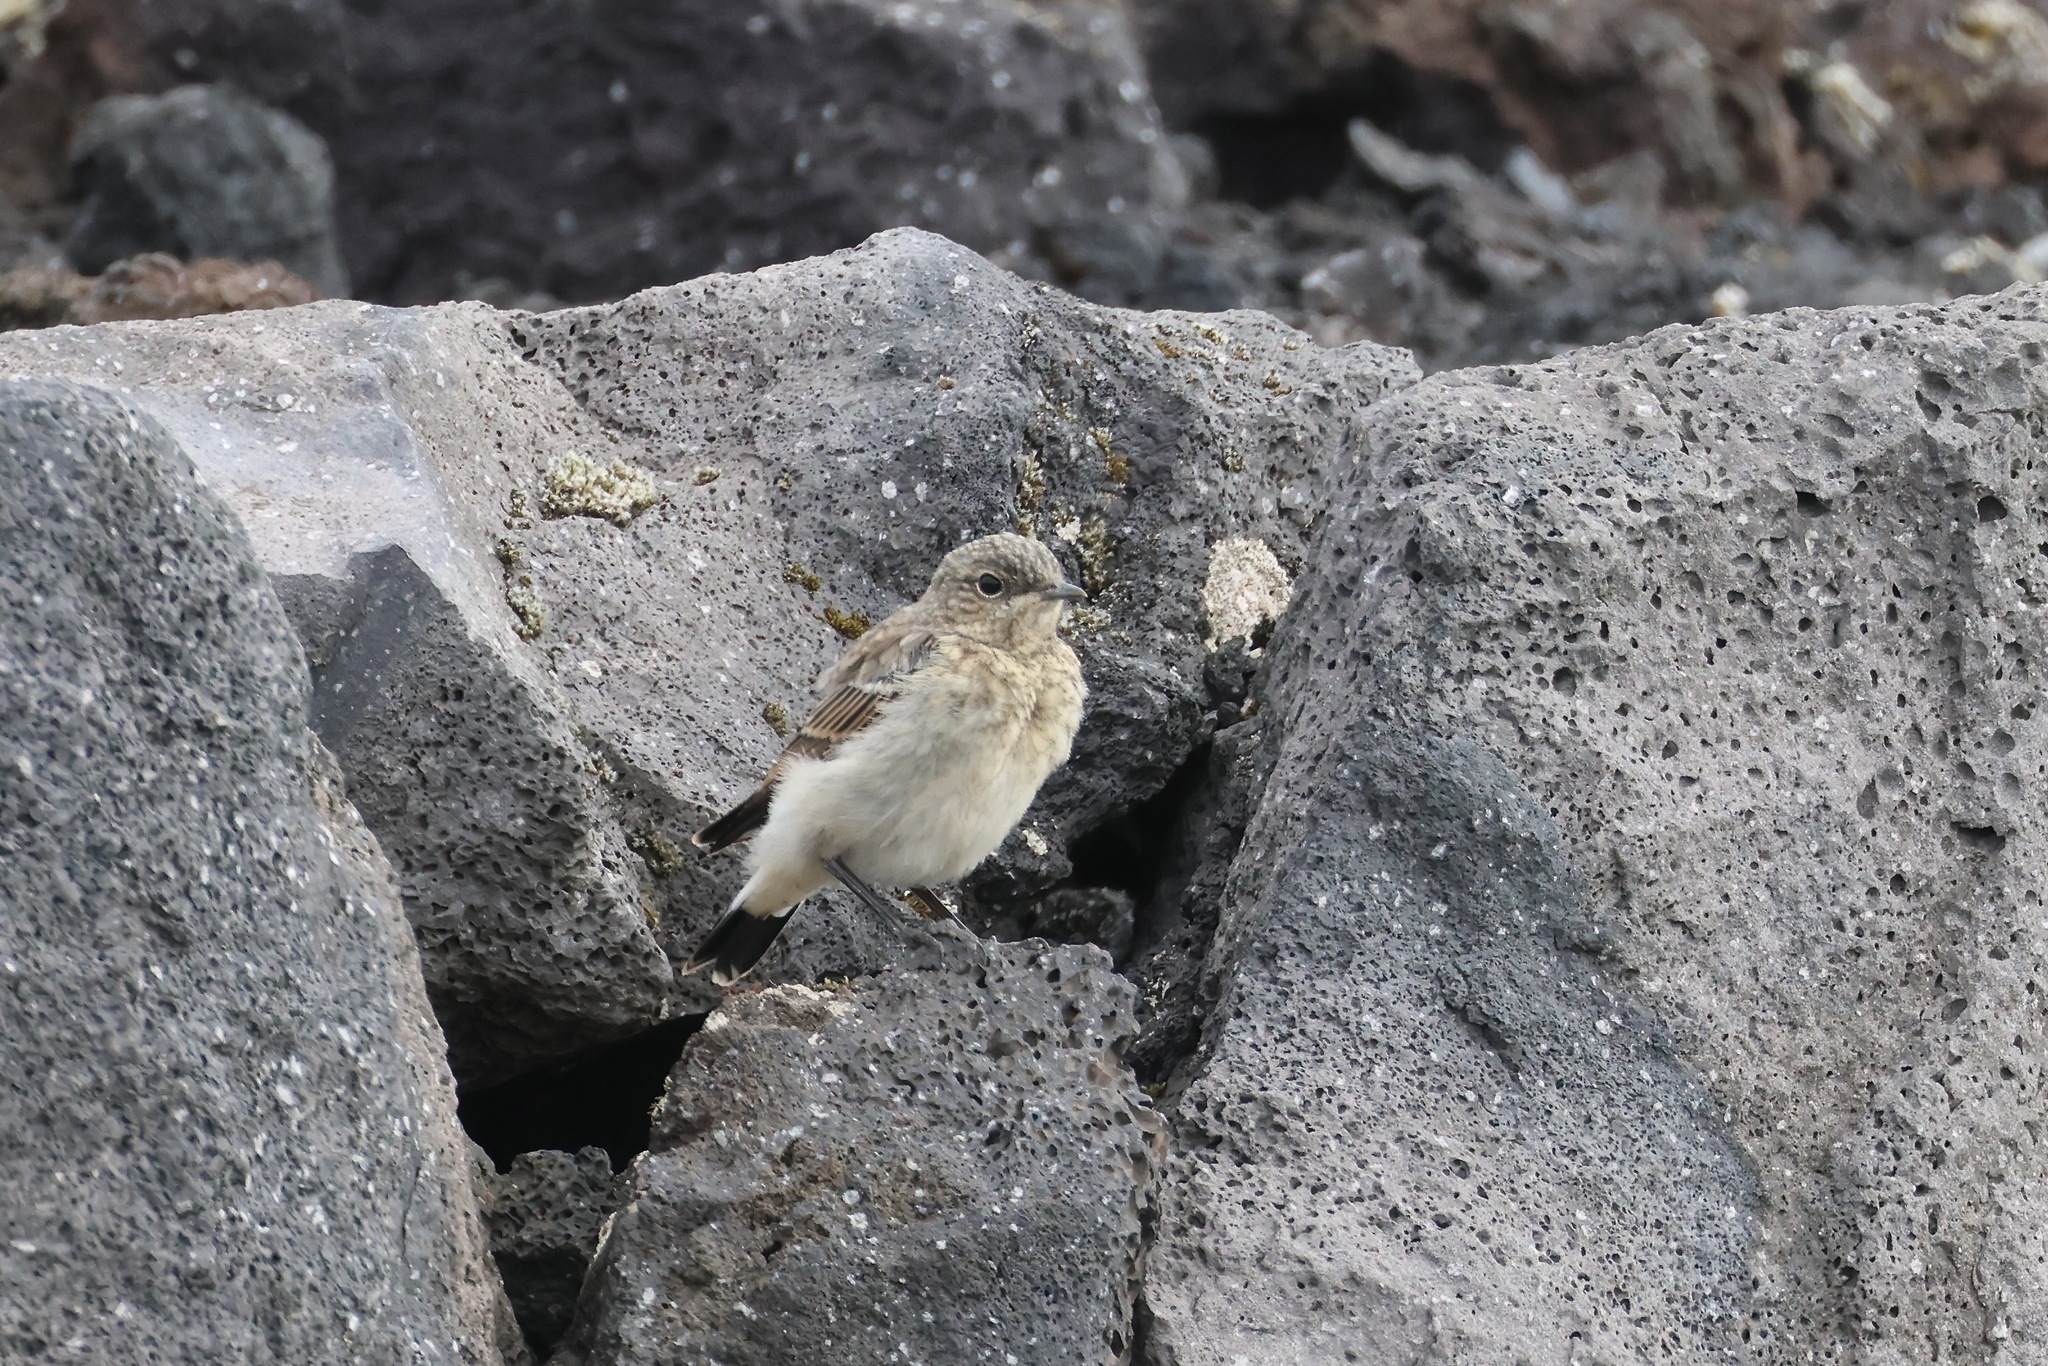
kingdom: Animalia
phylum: Chordata
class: Aves
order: Passeriformes
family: Muscicapidae
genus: Oenanthe
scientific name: Oenanthe oenanthe
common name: Northern wheatear
